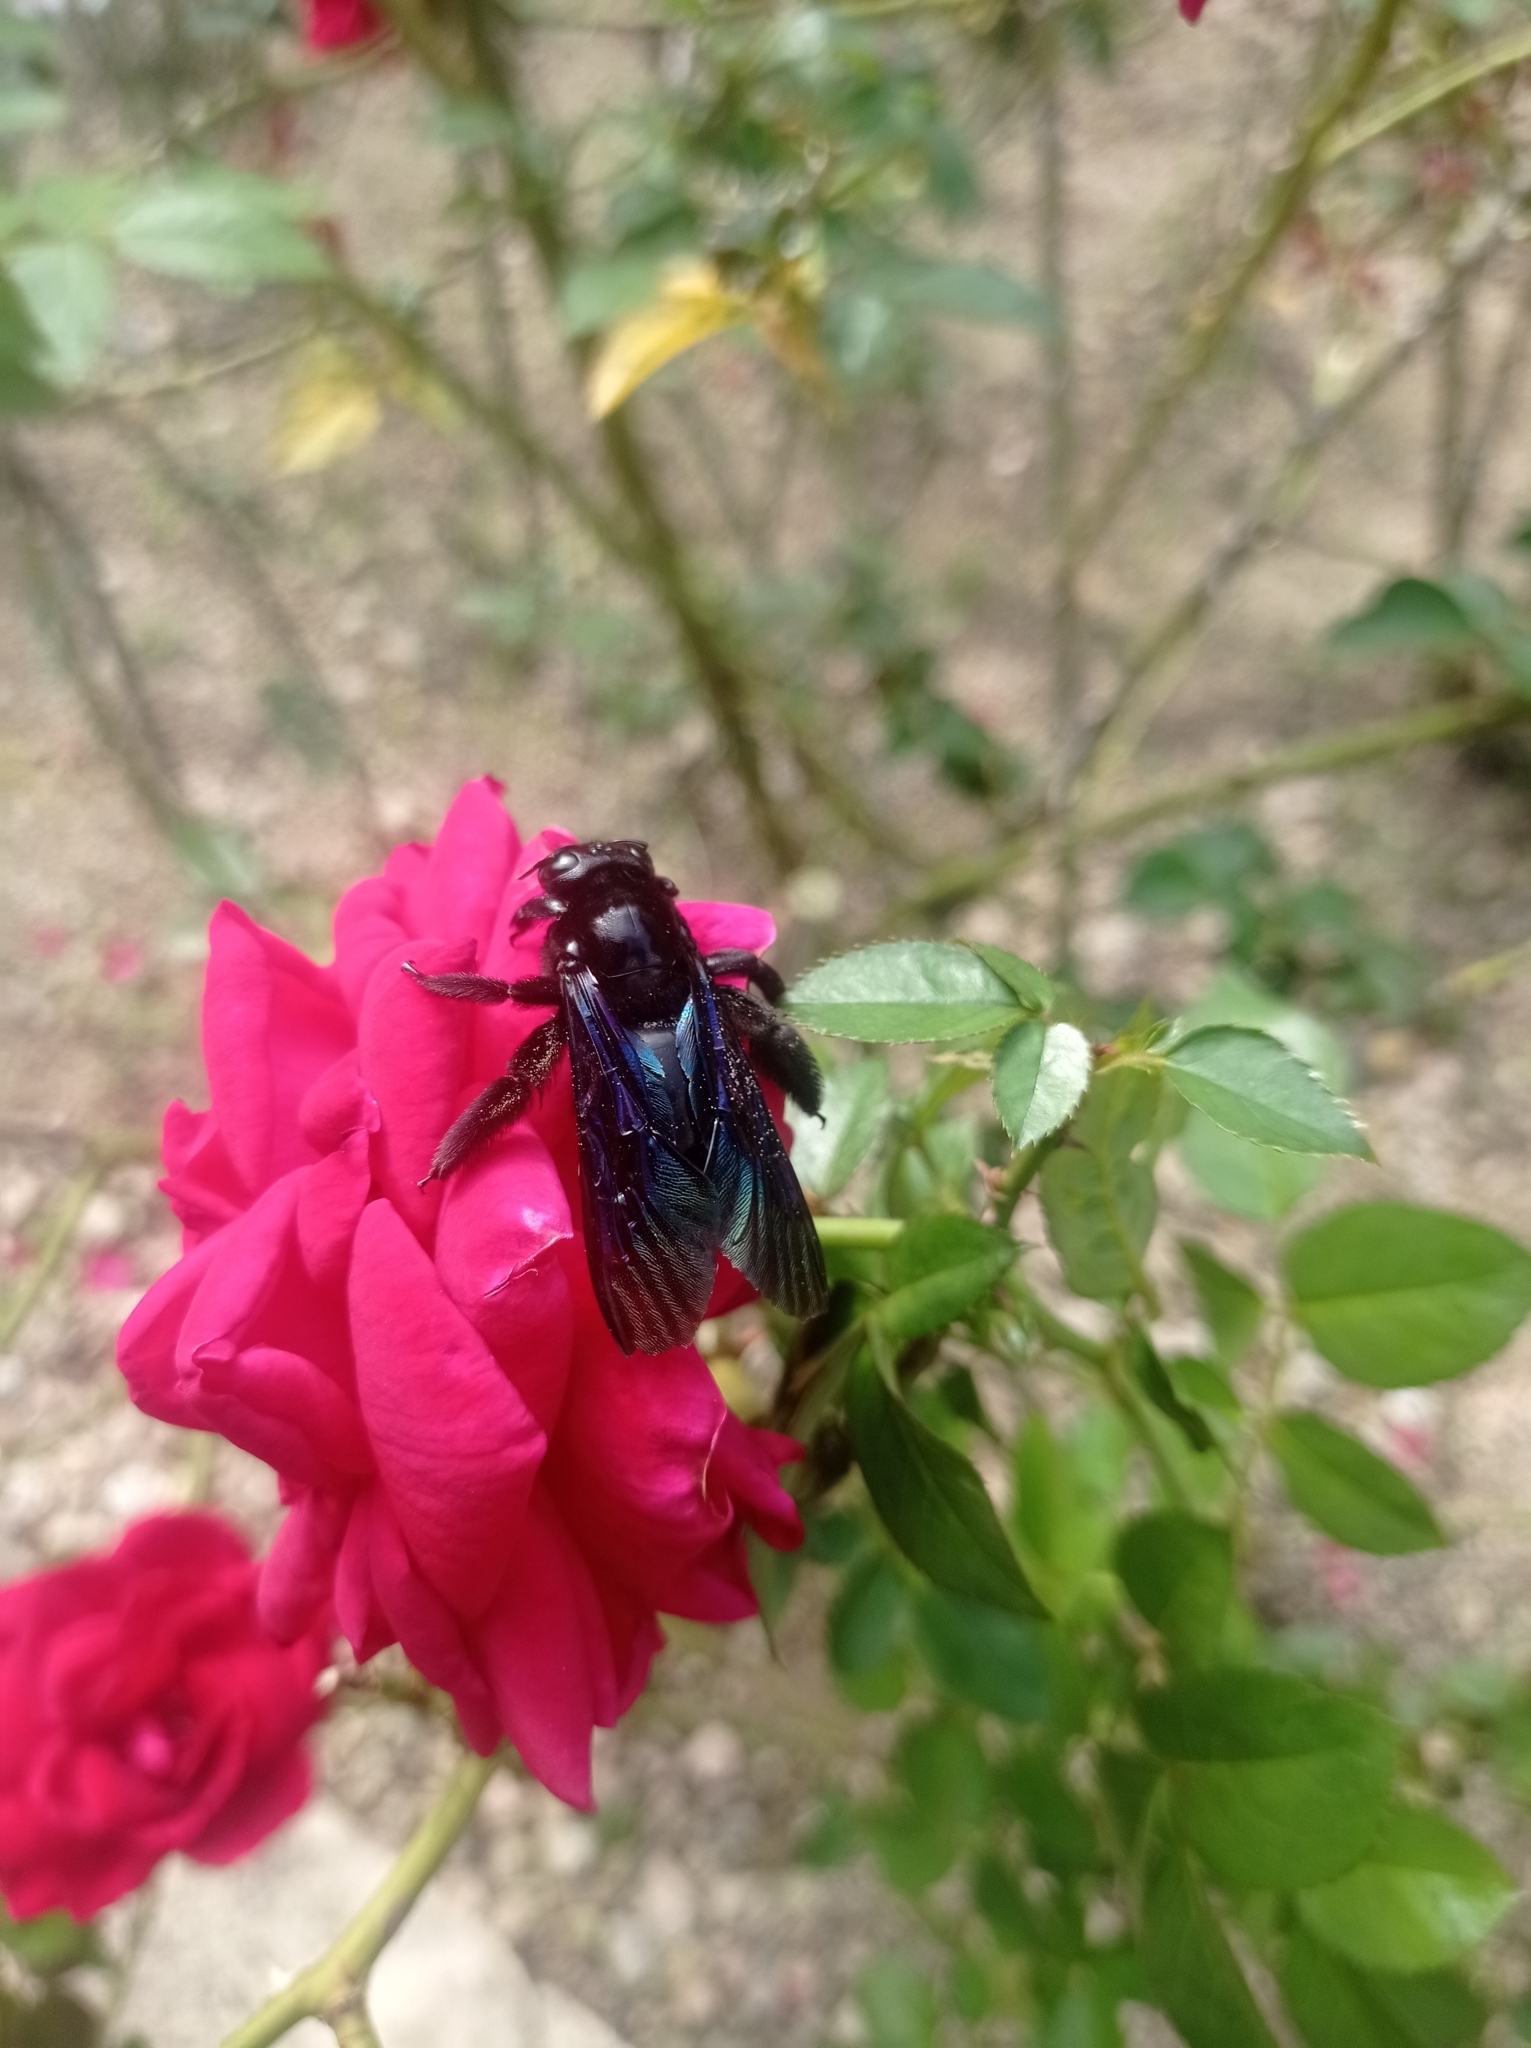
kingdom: Animalia
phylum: Arthropoda
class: Insecta
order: Hymenoptera
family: Apidae
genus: Xylocopa
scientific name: Xylocopa nasalis
